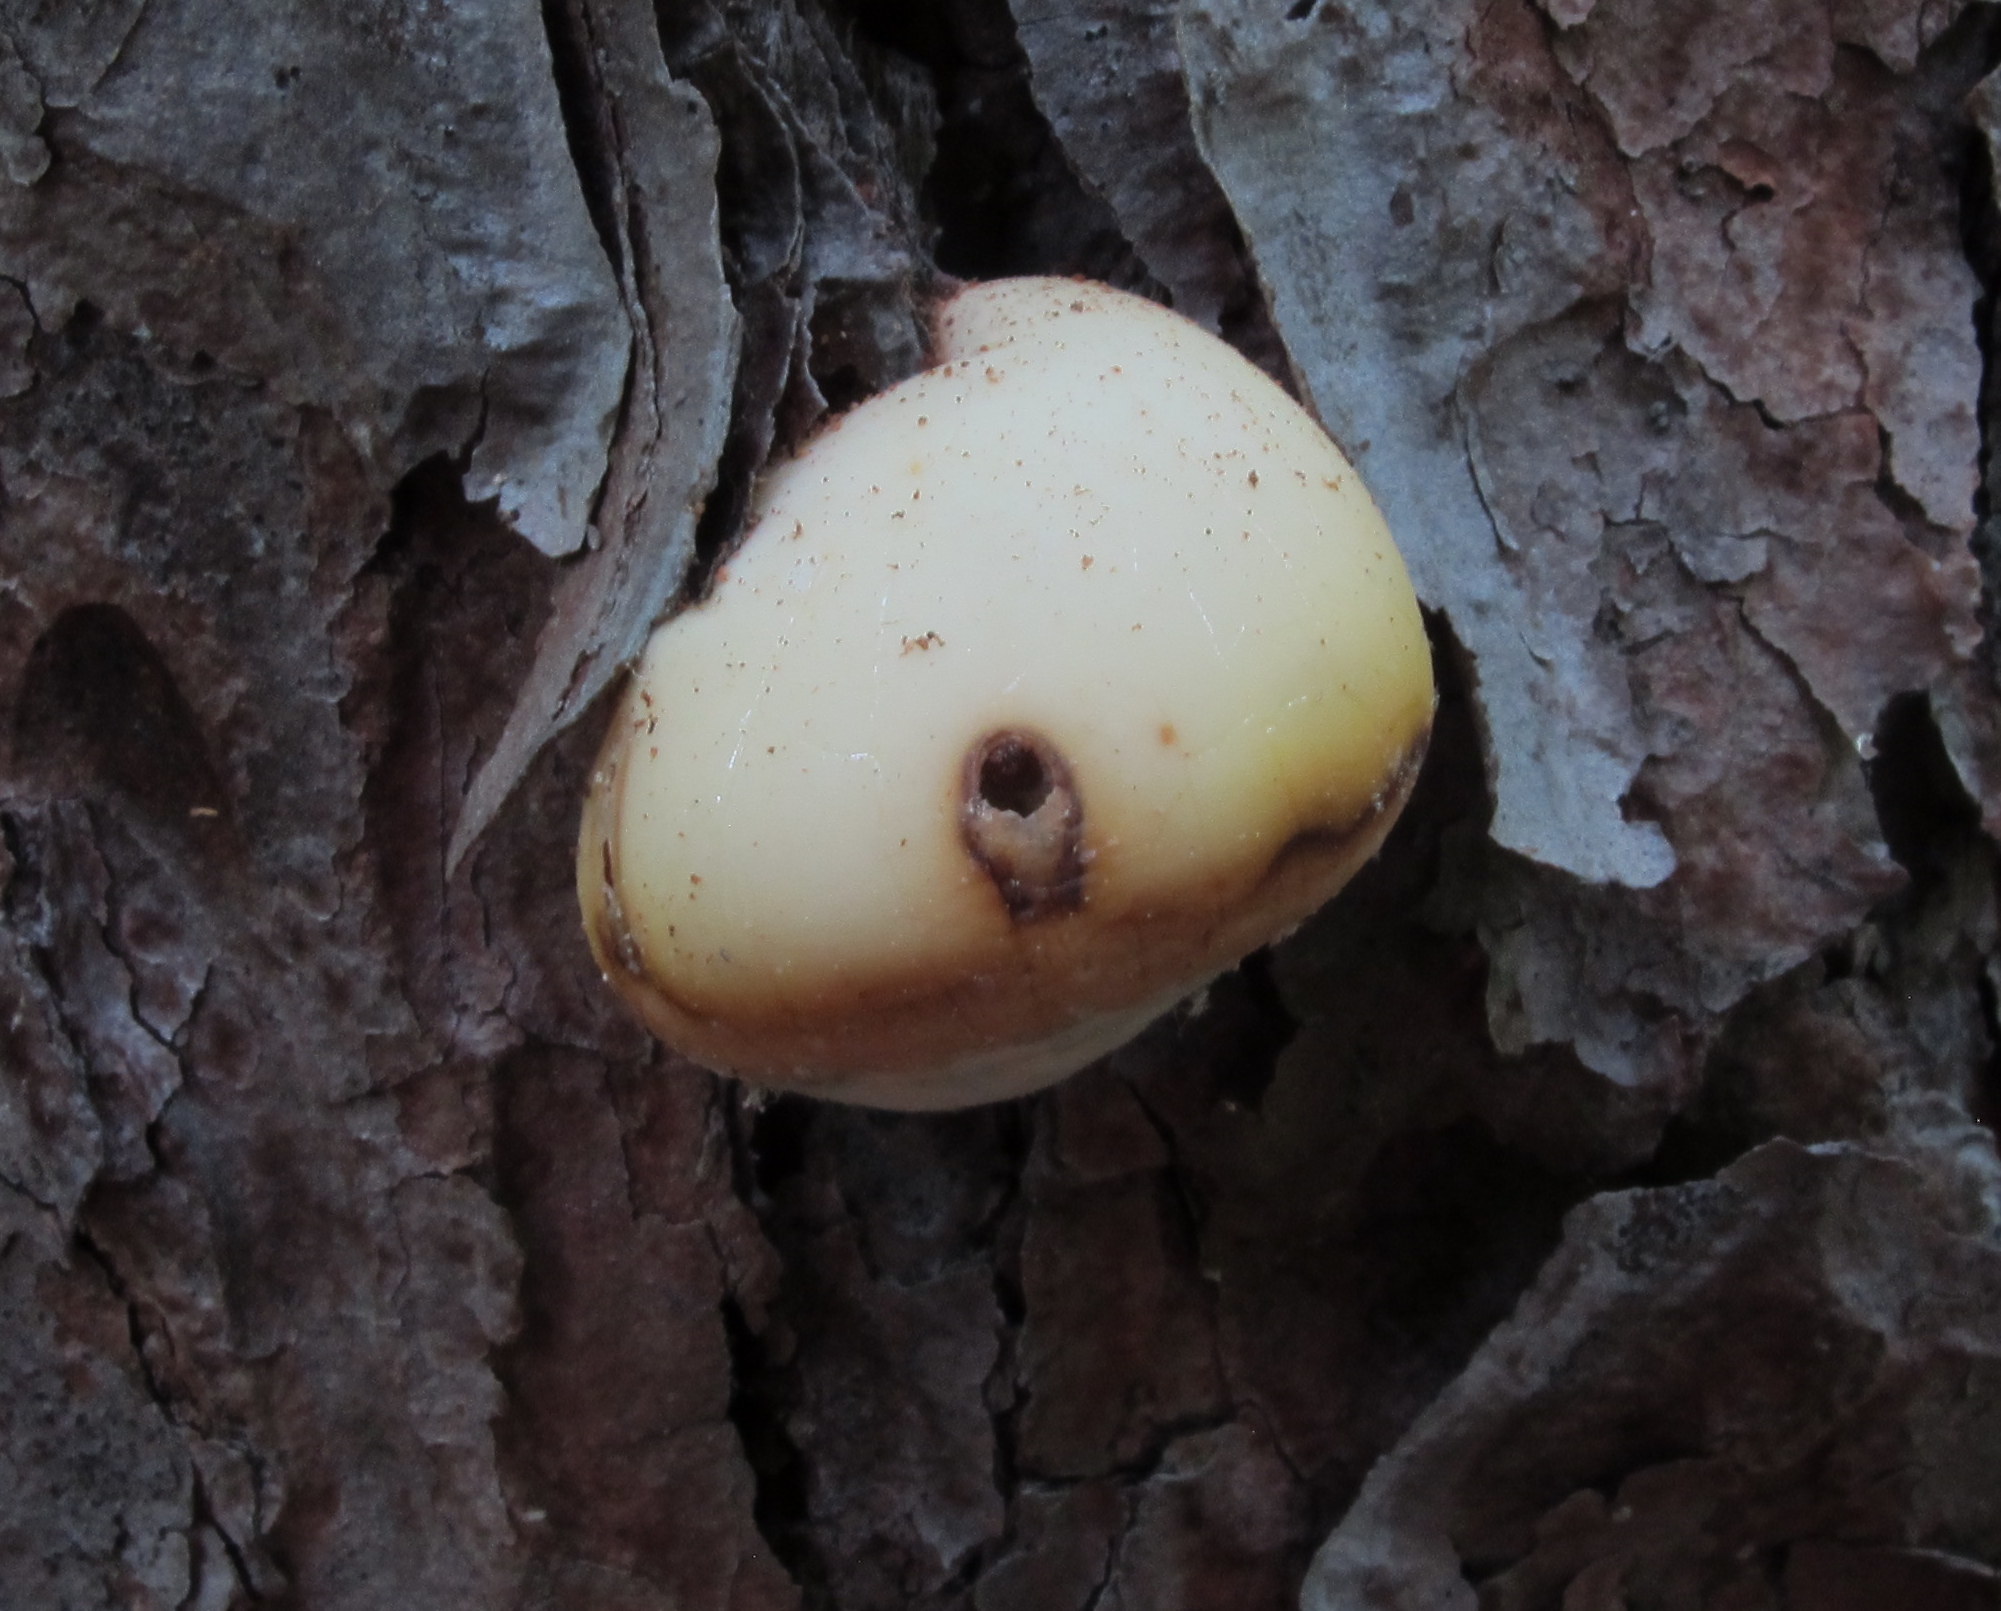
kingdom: Fungi
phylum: Basidiomycota
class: Agaricomycetes
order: Polyporales
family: Polyporaceae
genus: Cryptoporus
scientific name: Cryptoporus volvatus
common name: Veiled polypore
